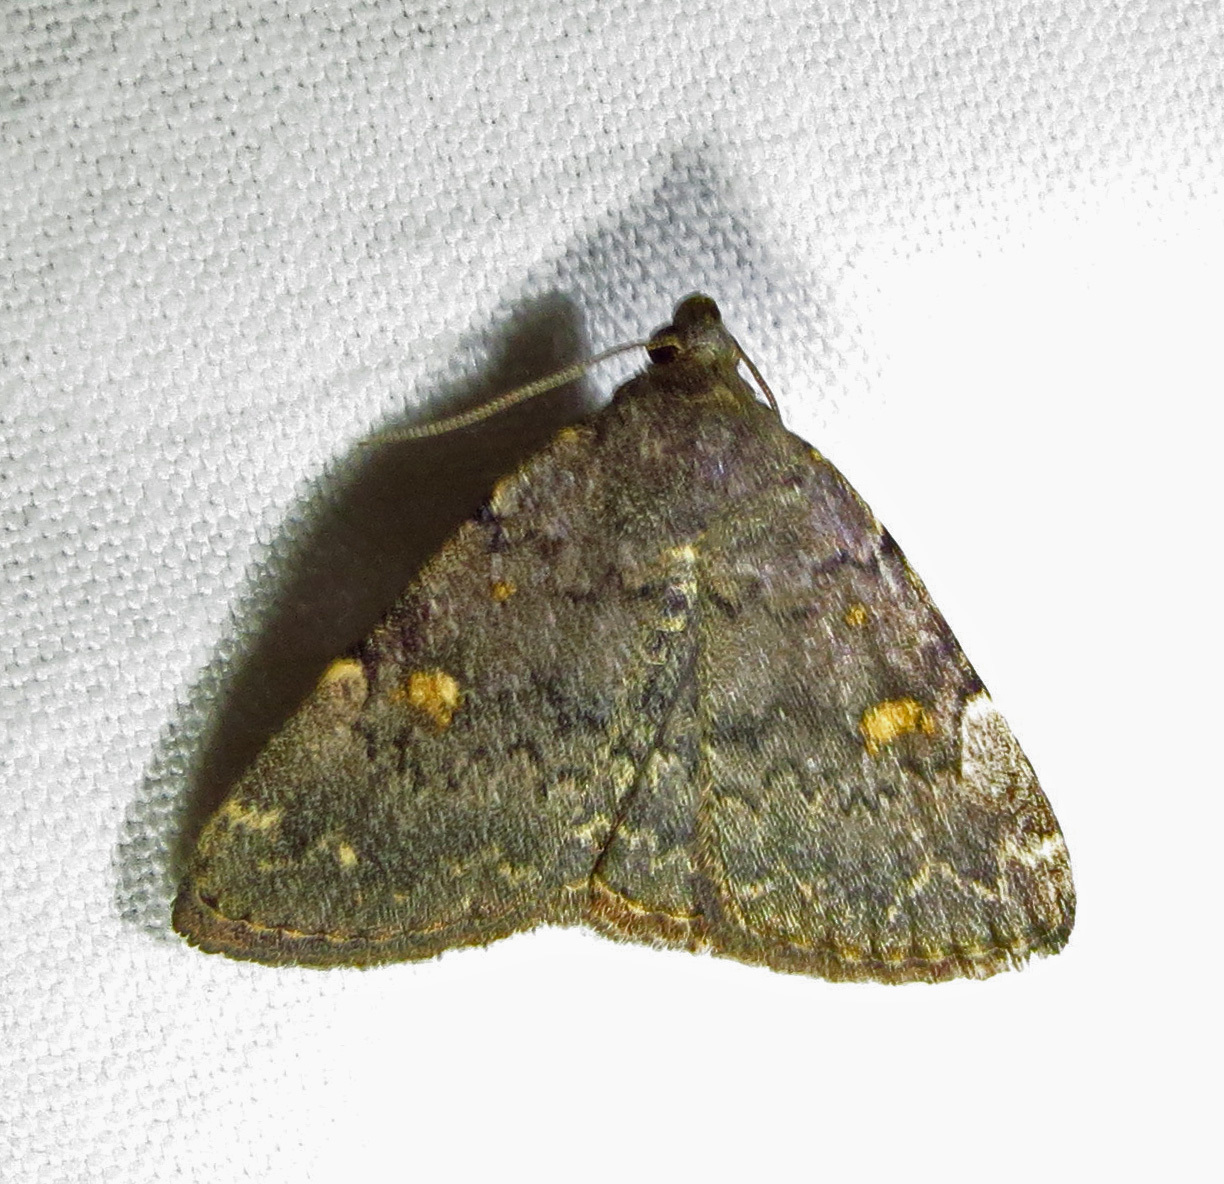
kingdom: Animalia
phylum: Arthropoda
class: Insecta
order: Lepidoptera
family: Erebidae
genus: Idia
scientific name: Idia aemula
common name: Common idia moth
